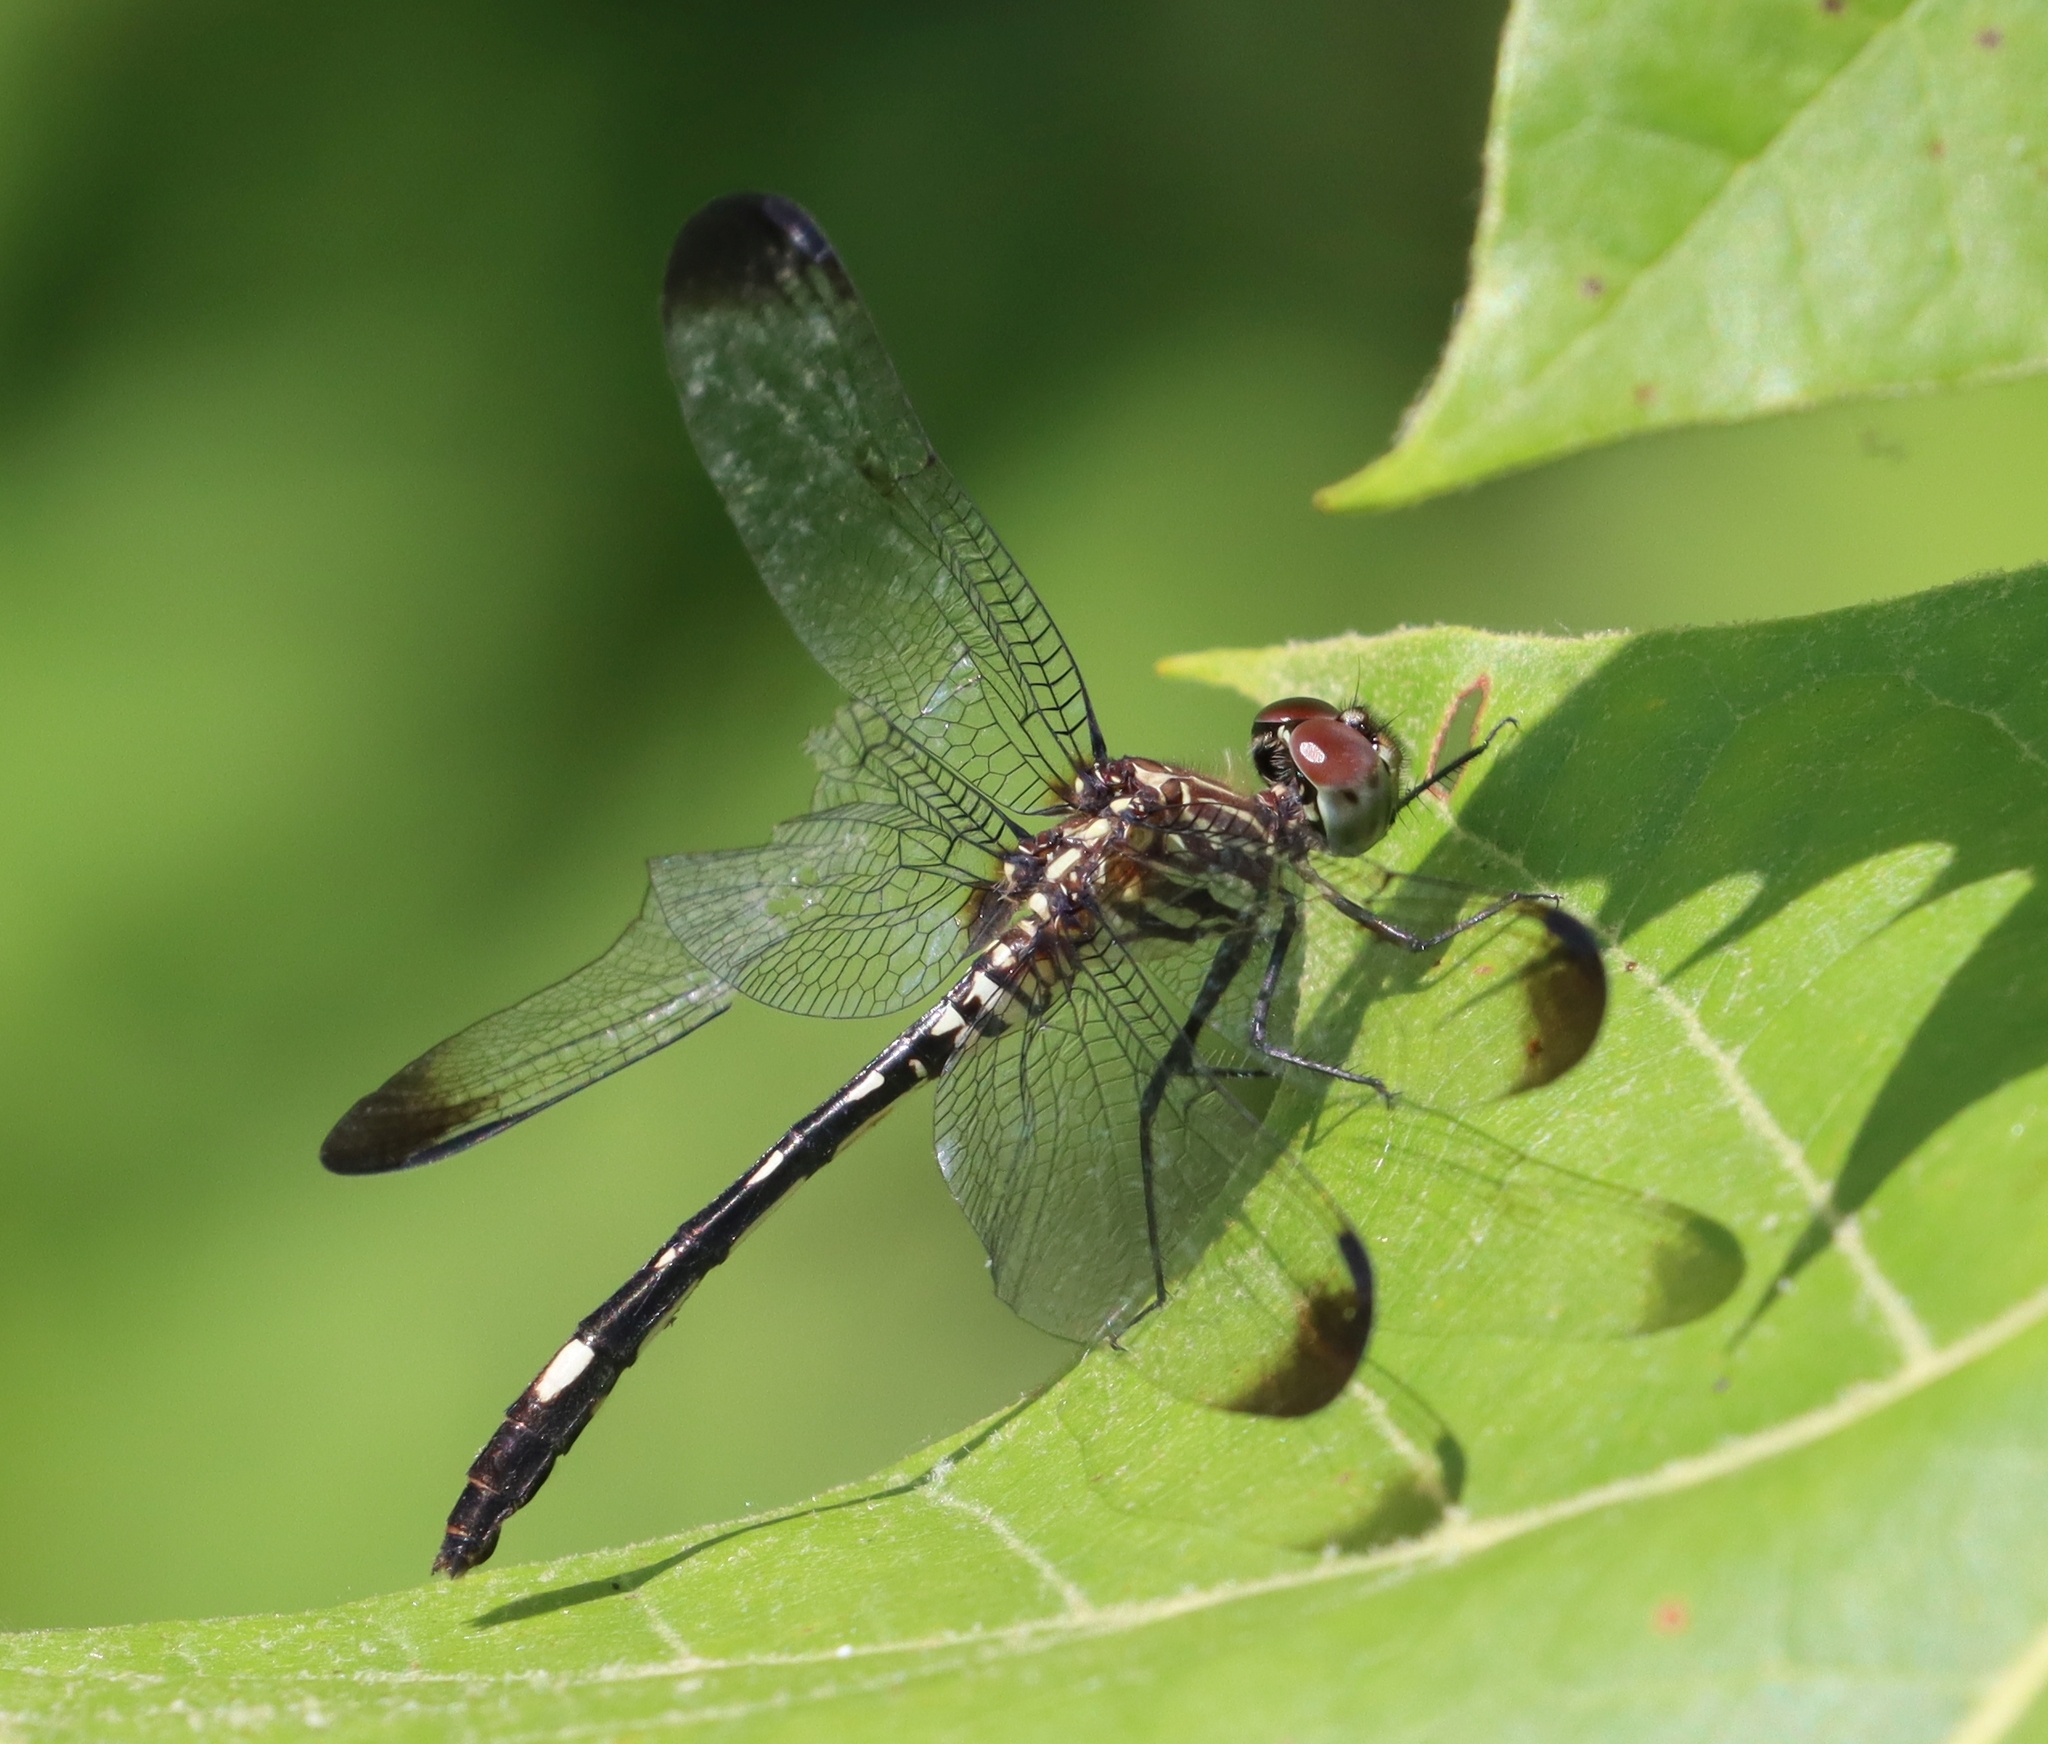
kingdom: Animalia
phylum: Arthropoda
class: Insecta
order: Odonata
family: Libellulidae
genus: Dythemis
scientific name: Dythemis velox
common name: Swift setwing
